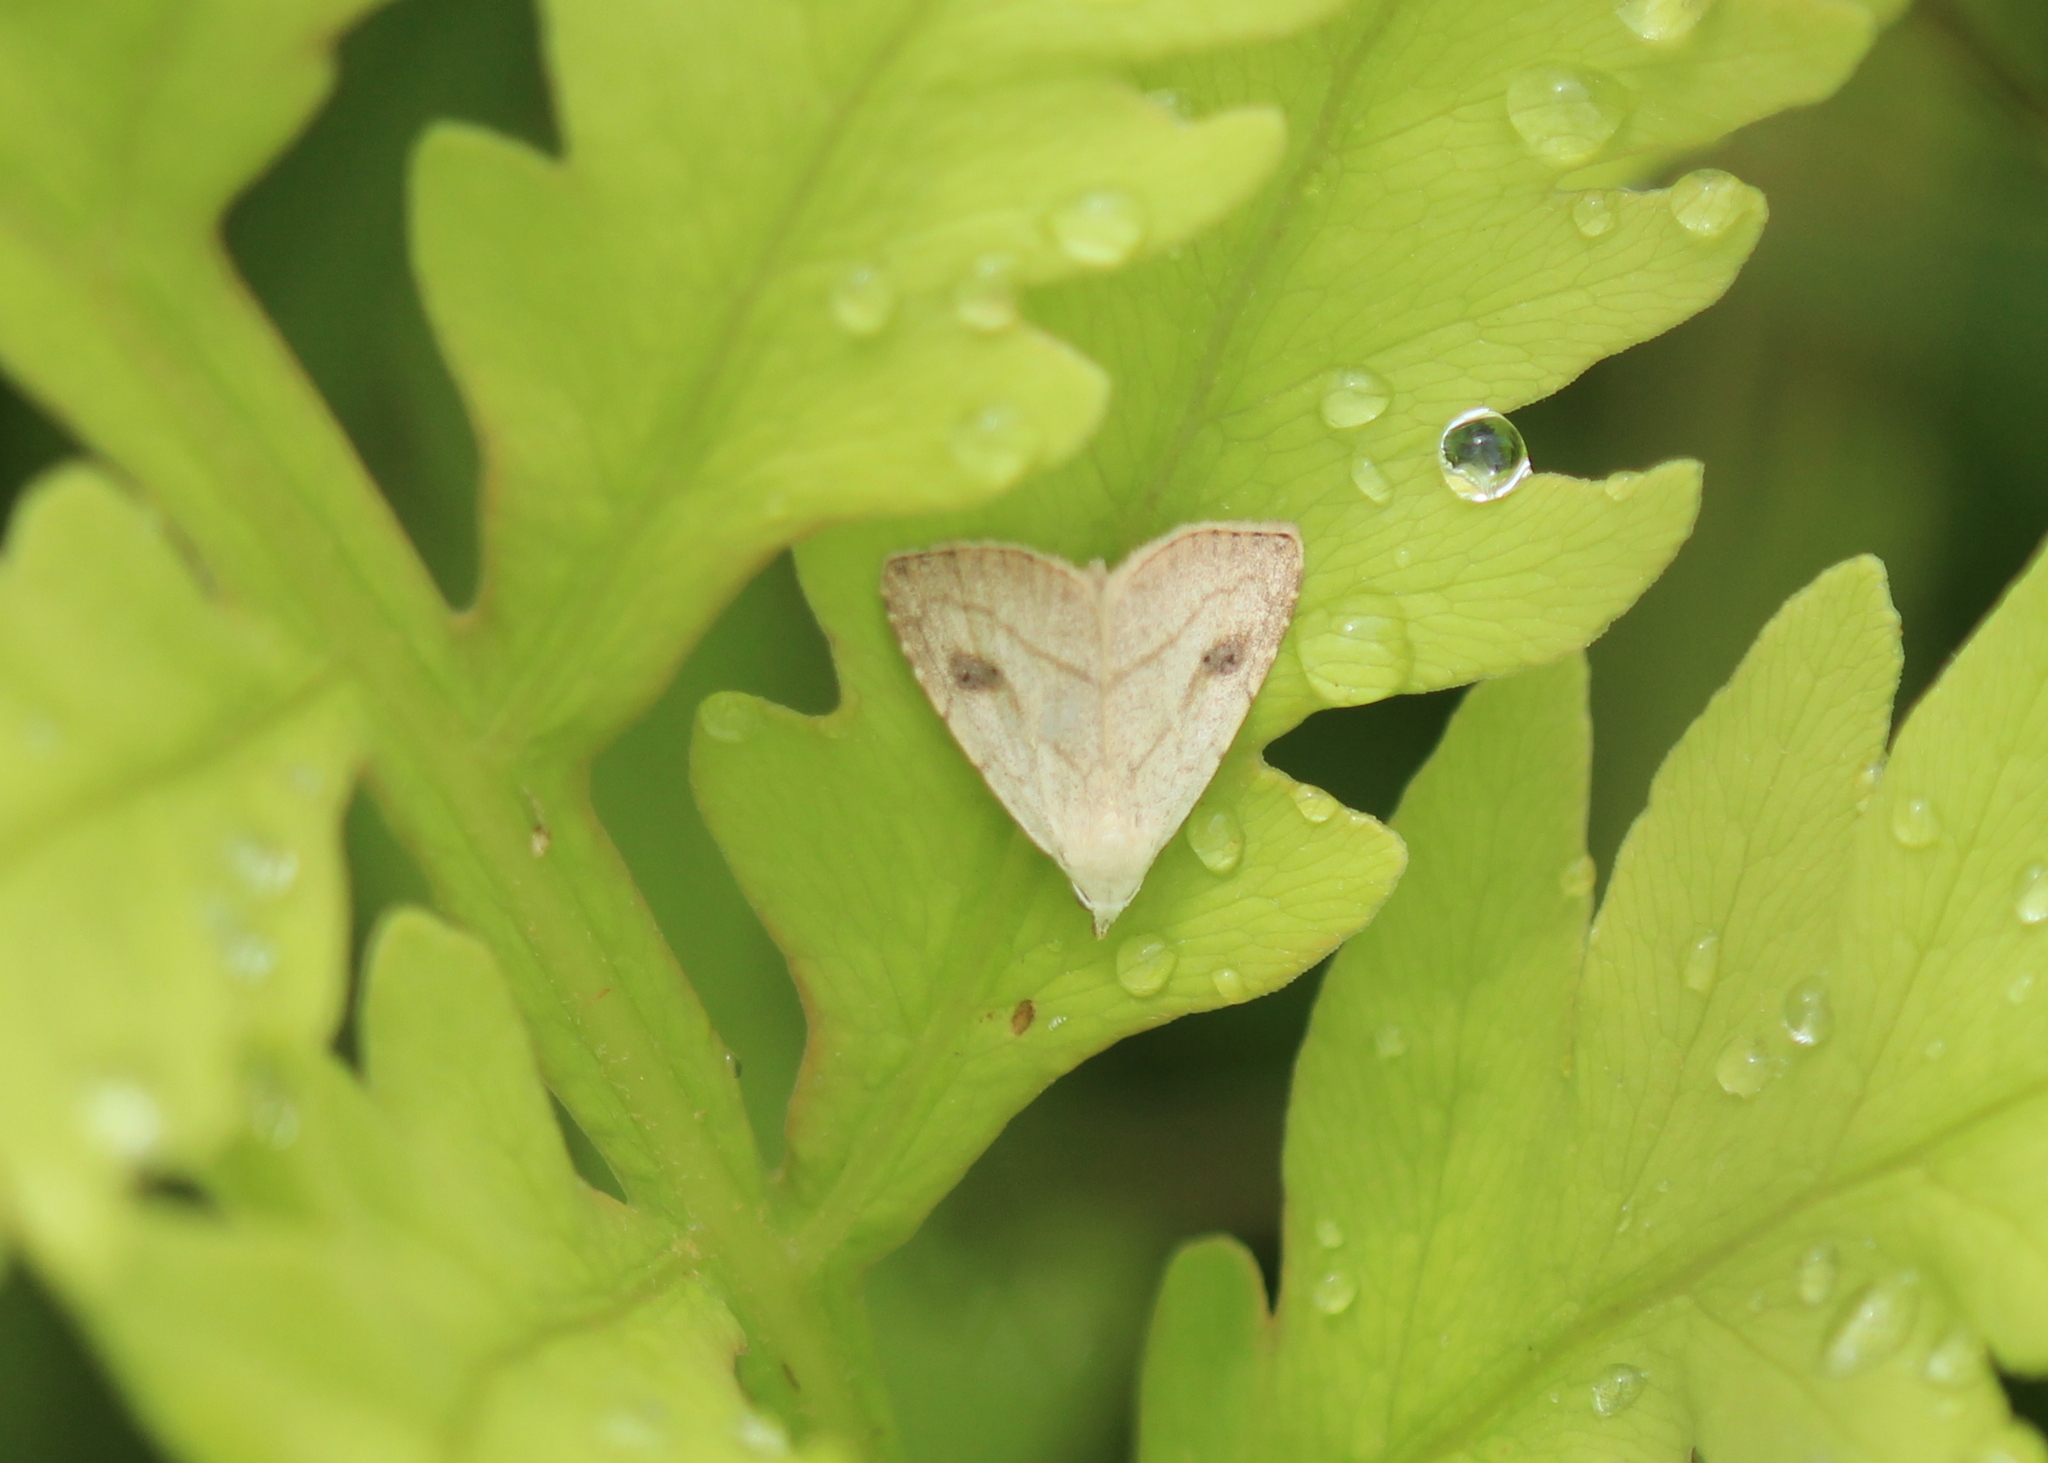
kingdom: Animalia
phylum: Arthropoda
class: Insecta
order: Lepidoptera
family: Erebidae
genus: Rivula
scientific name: Rivula propinqualis
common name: Spotted grass moth
